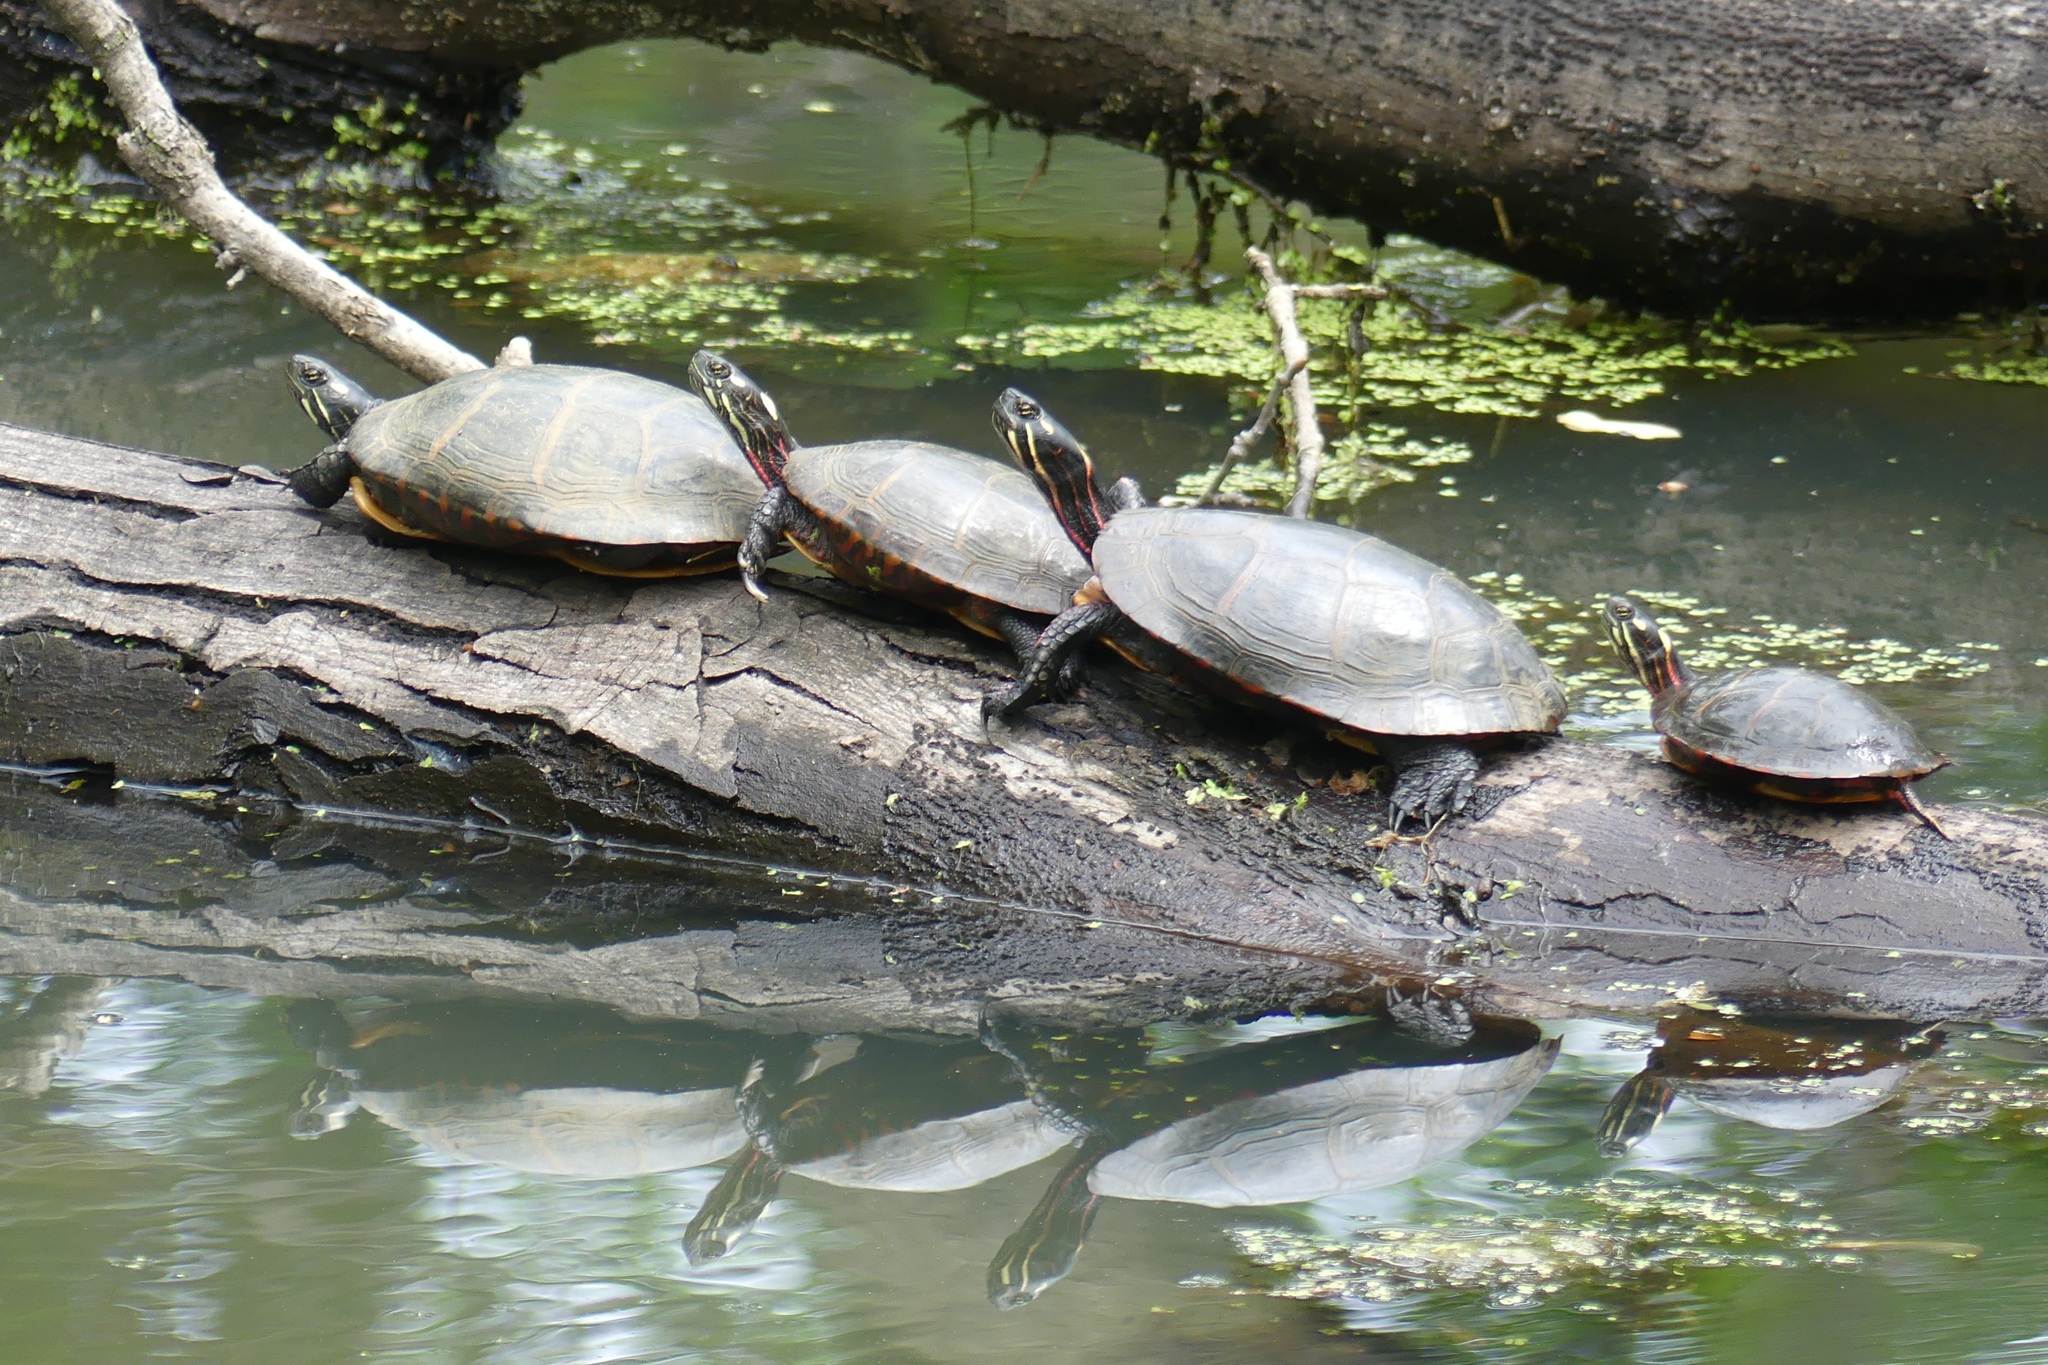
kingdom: Animalia
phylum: Chordata
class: Testudines
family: Emydidae
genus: Chrysemys
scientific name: Chrysemys picta
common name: Painted turtle
